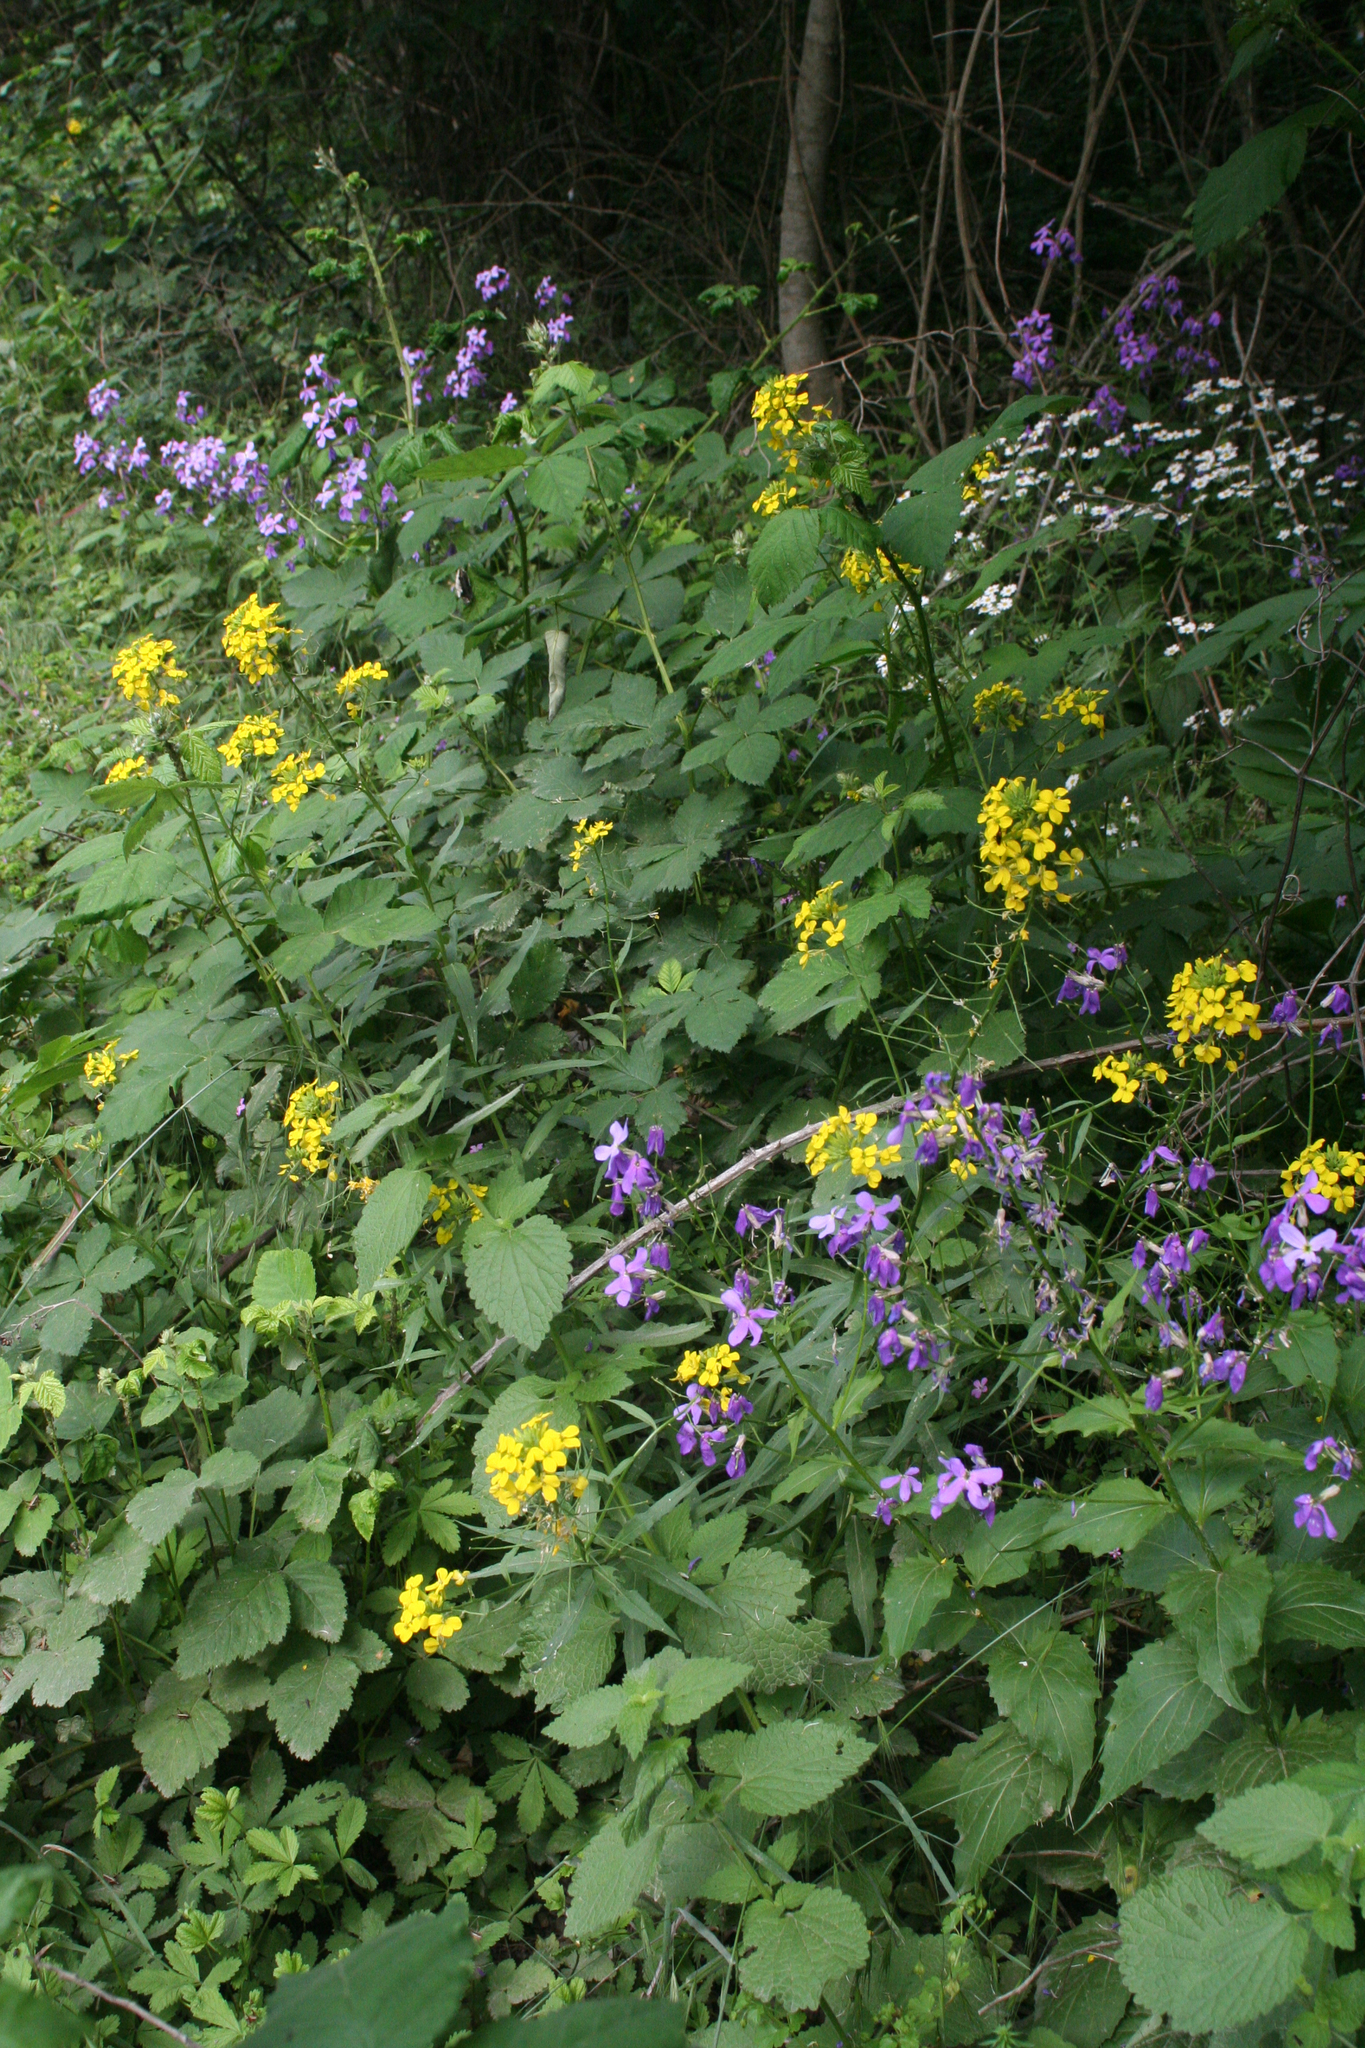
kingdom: Plantae
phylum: Tracheophyta
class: Magnoliopsida
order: Brassicales
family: Brassicaceae
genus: Erysimum
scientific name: Erysimum aureum
